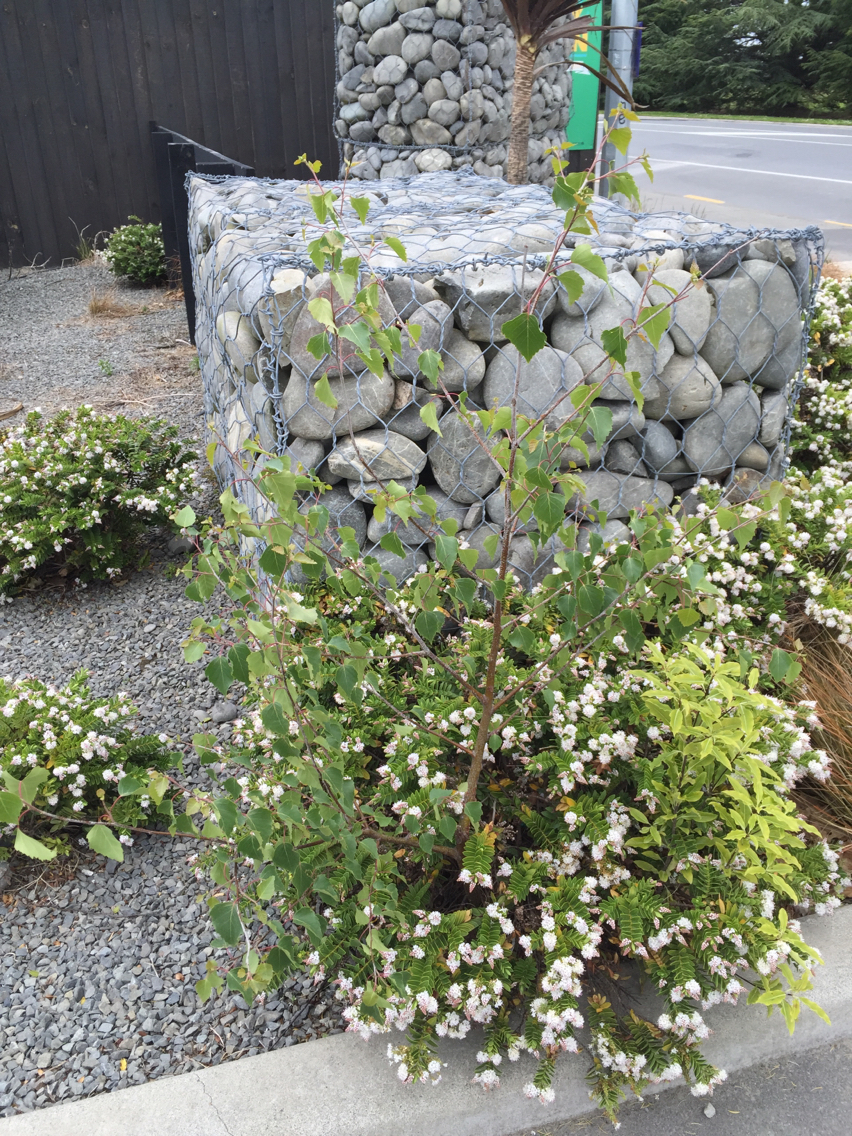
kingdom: Plantae
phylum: Tracheophyta
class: Magnoliopsida
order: Fagales
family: Betulaceae
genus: Betula
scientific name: Betula pendula
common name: Silver birch
